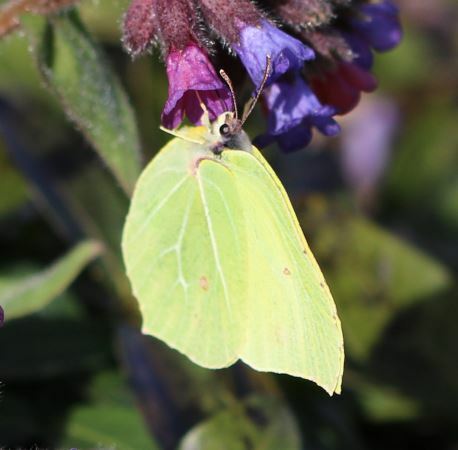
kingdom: Animalia
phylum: Arthropoda
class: Insecta
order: Lepidoptera
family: Pieridae
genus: Gonepteryx
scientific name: Gonepteryx rhamni
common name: Brimstone
